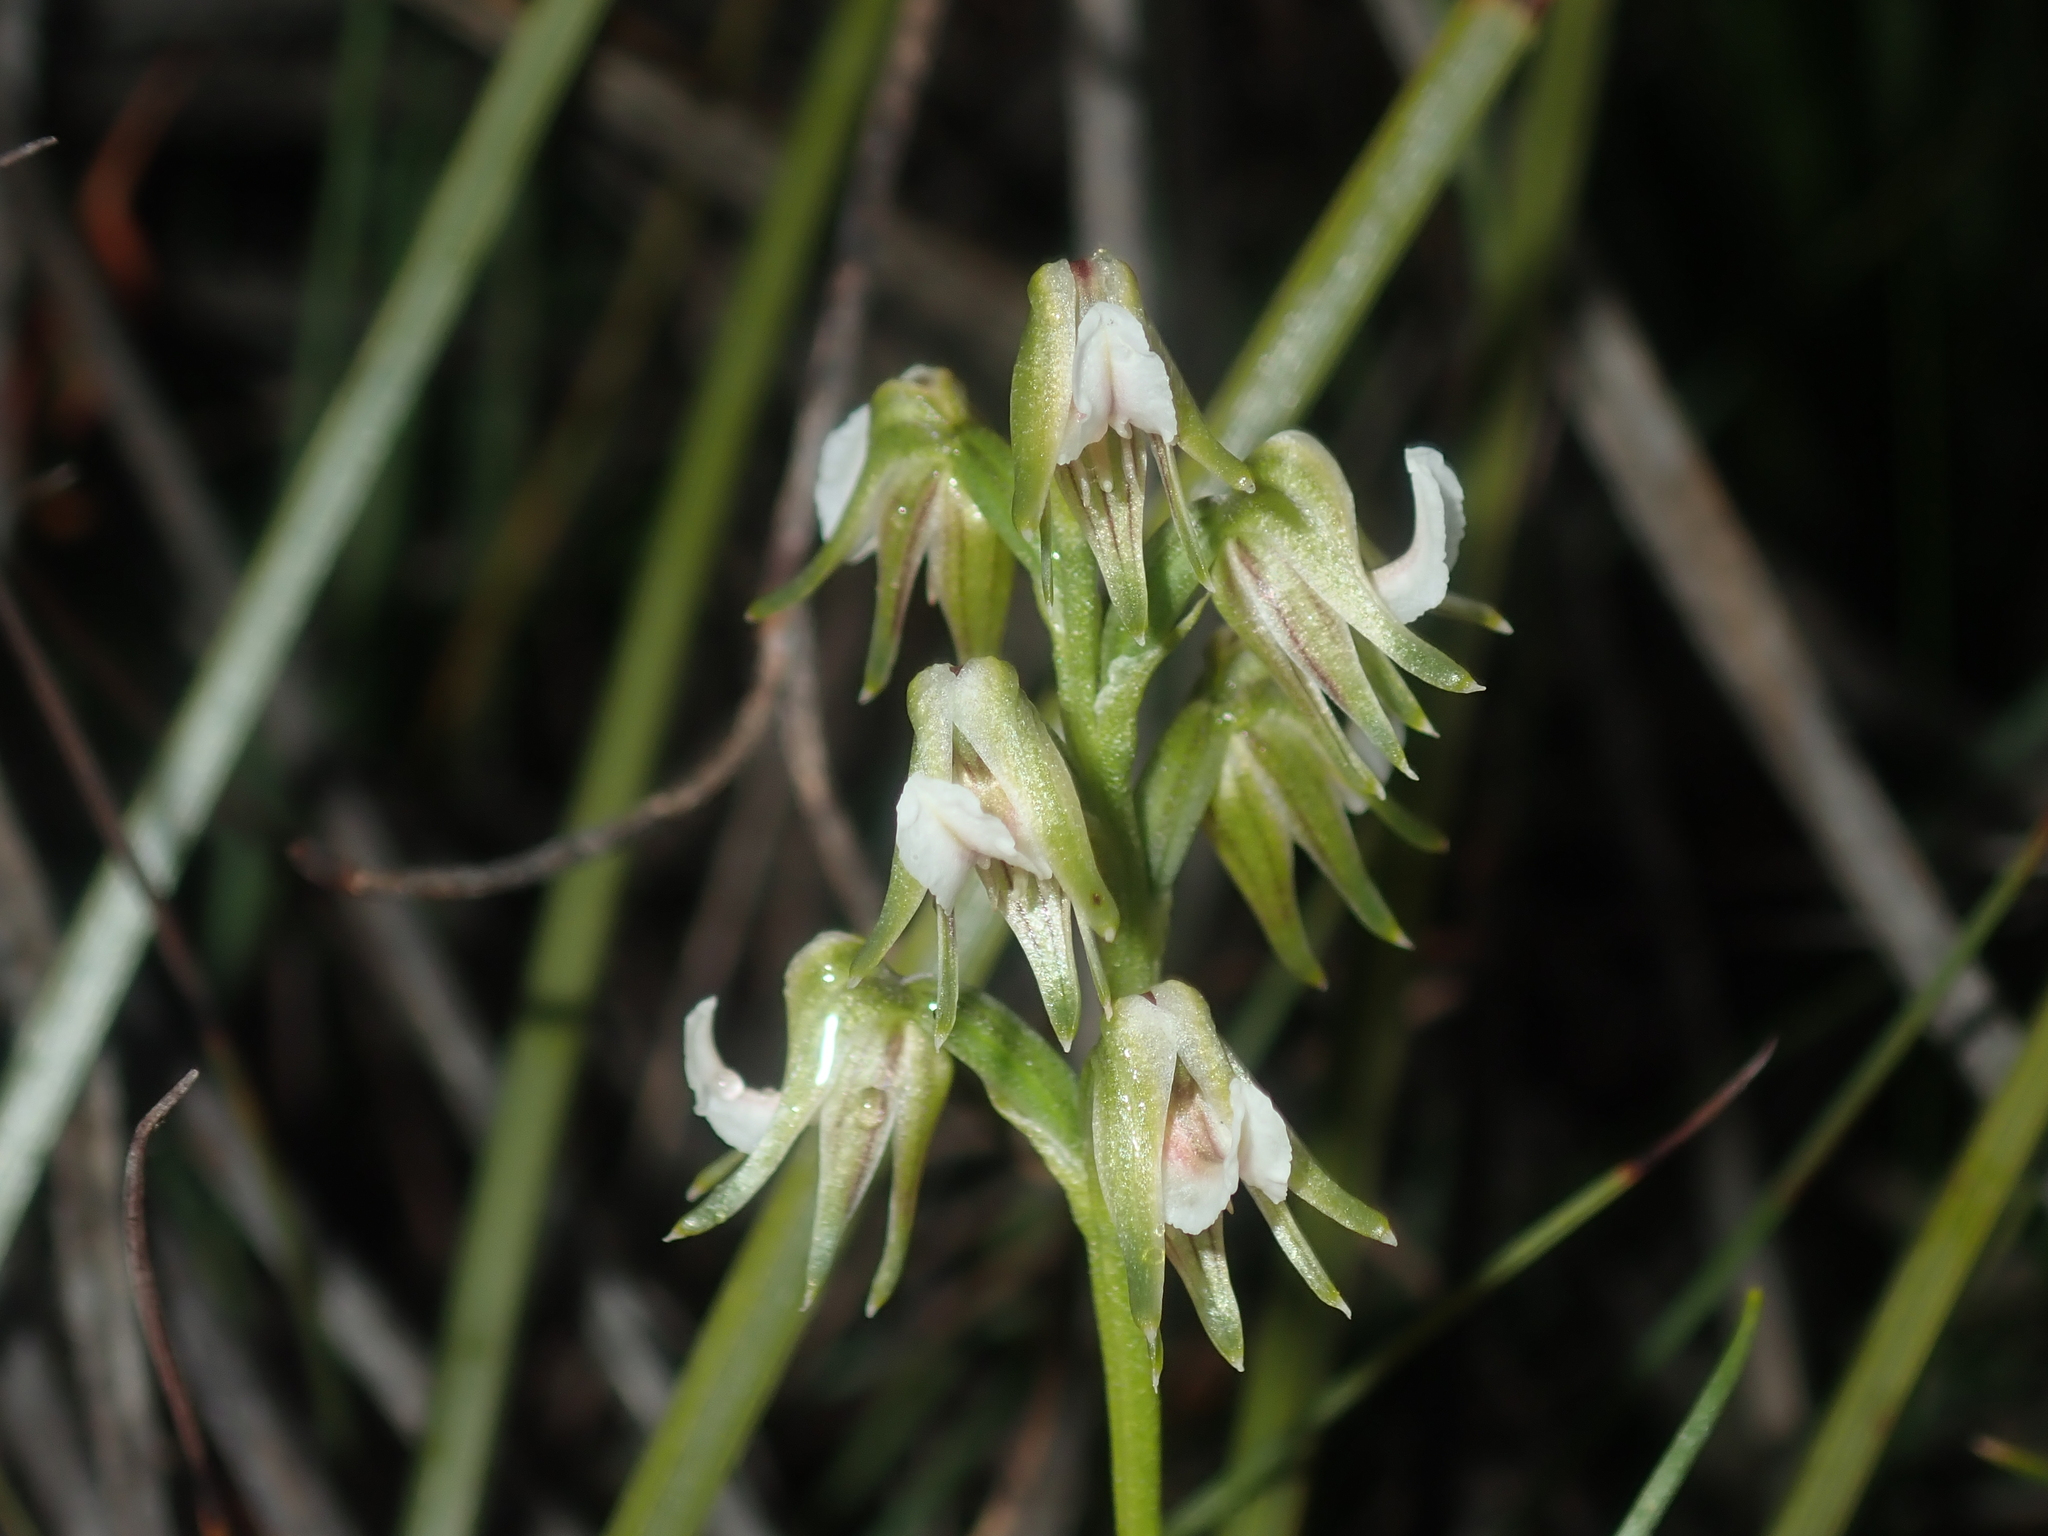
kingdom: Plantae
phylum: Tracheophyta
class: Liliopsida
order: Asparagales
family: Orchidaceae
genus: Prasophyllum
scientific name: Prasophyllum parvifolium
